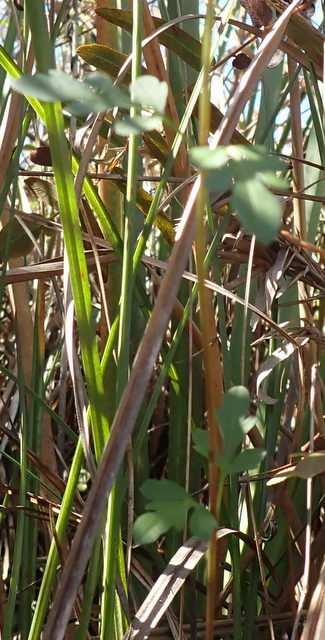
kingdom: Plantae
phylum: Tracheophyta
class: Magnoliopsida
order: Asterales
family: Asteraceae
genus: Bidens
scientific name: Bidens mitis
